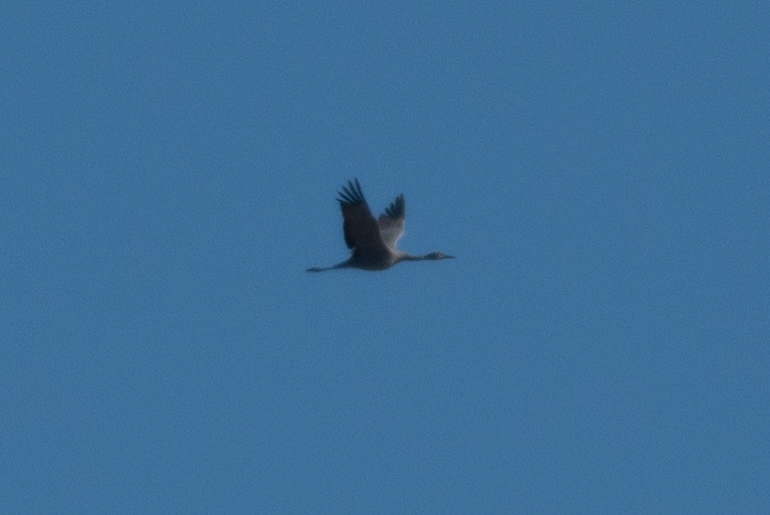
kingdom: Animalia
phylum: Chordata
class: Aves
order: Gruiformes
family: Gruidae
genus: Grus
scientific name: Grus canadensis
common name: Sandhill crane
